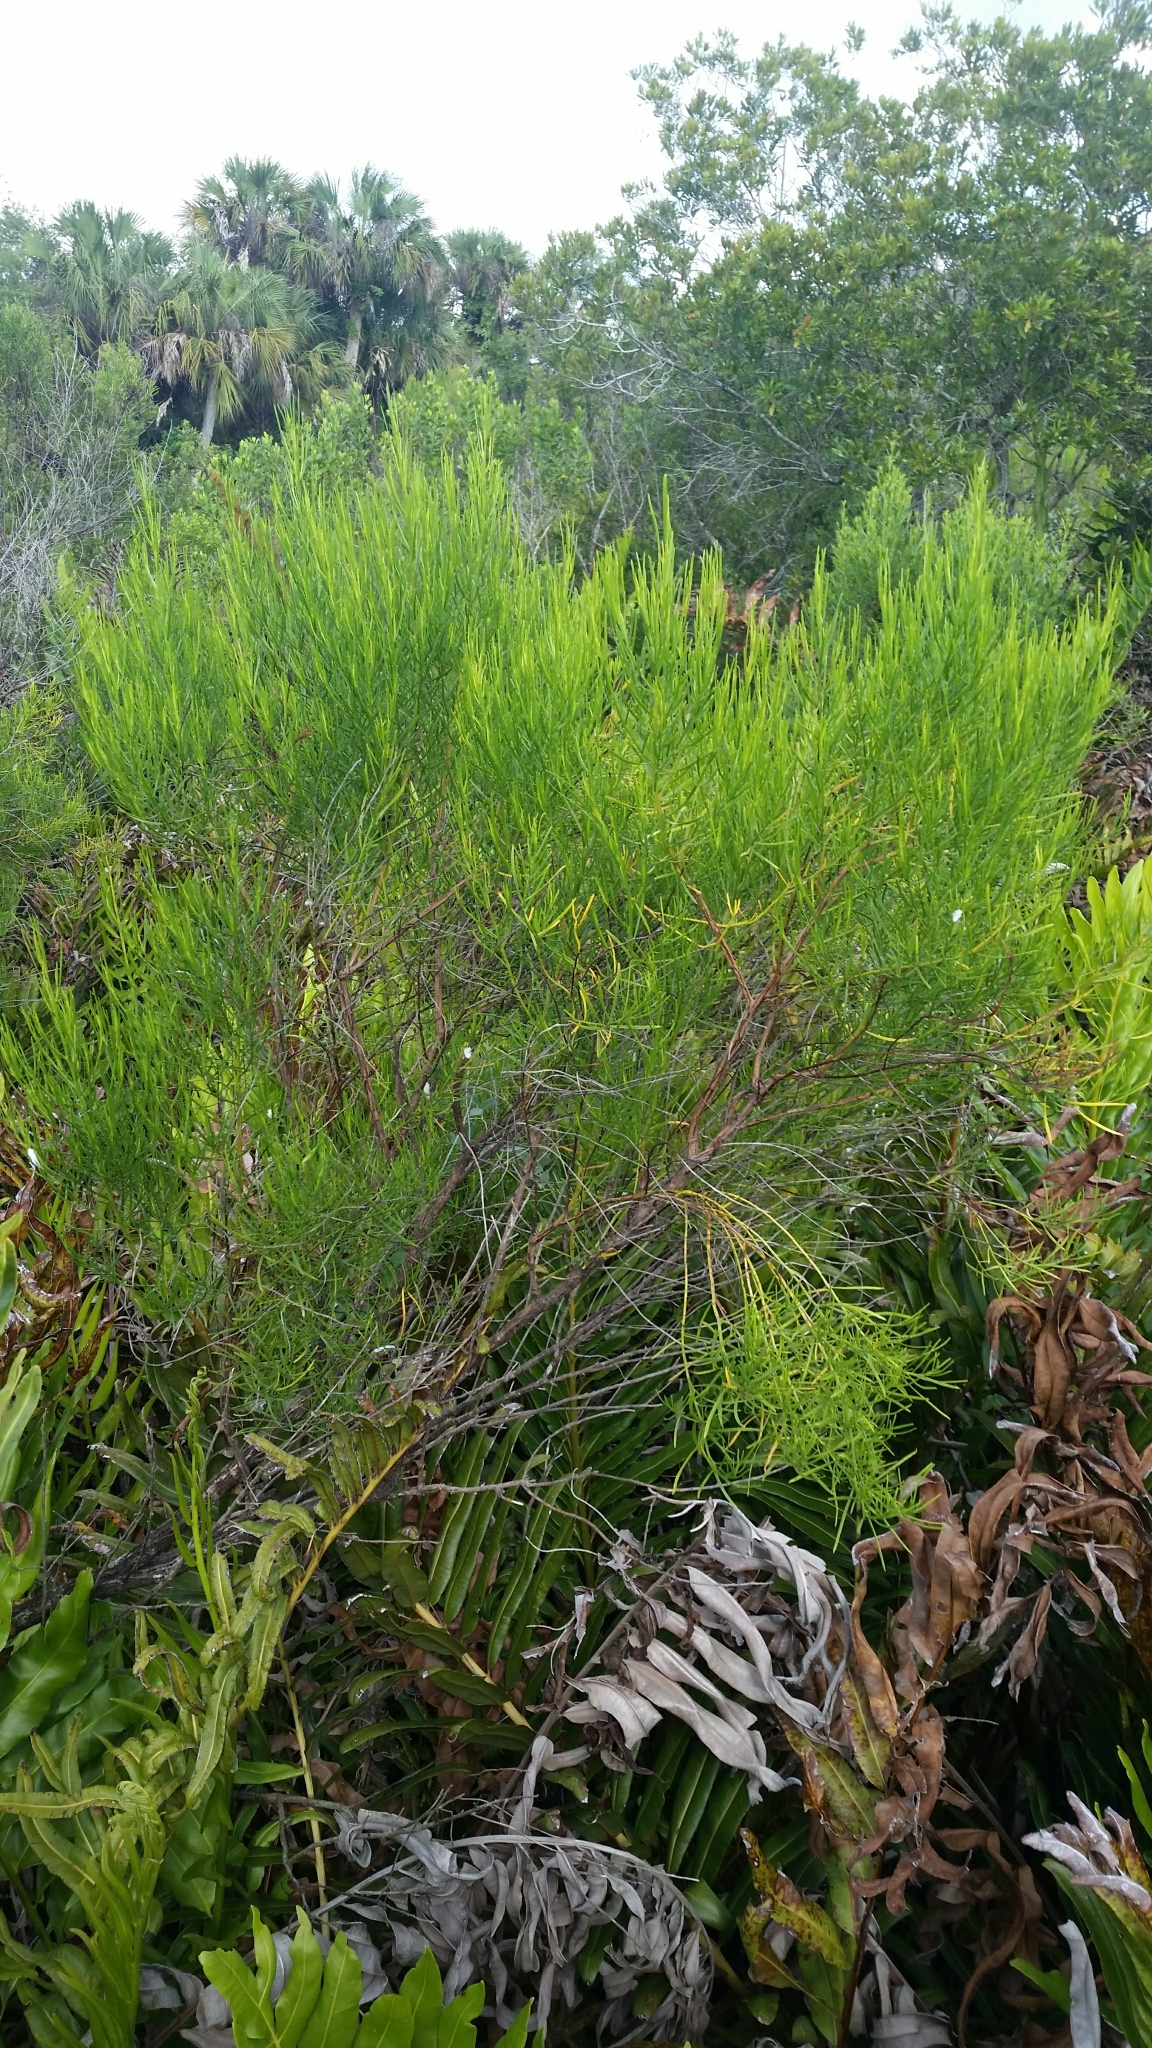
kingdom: Plantae
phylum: Tracheophyta
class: Magnoliopsida
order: Asterales
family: Asteraceae
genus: Baccharis
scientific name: Baccharis angustifolia
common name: Narrow-leaf baccharis
